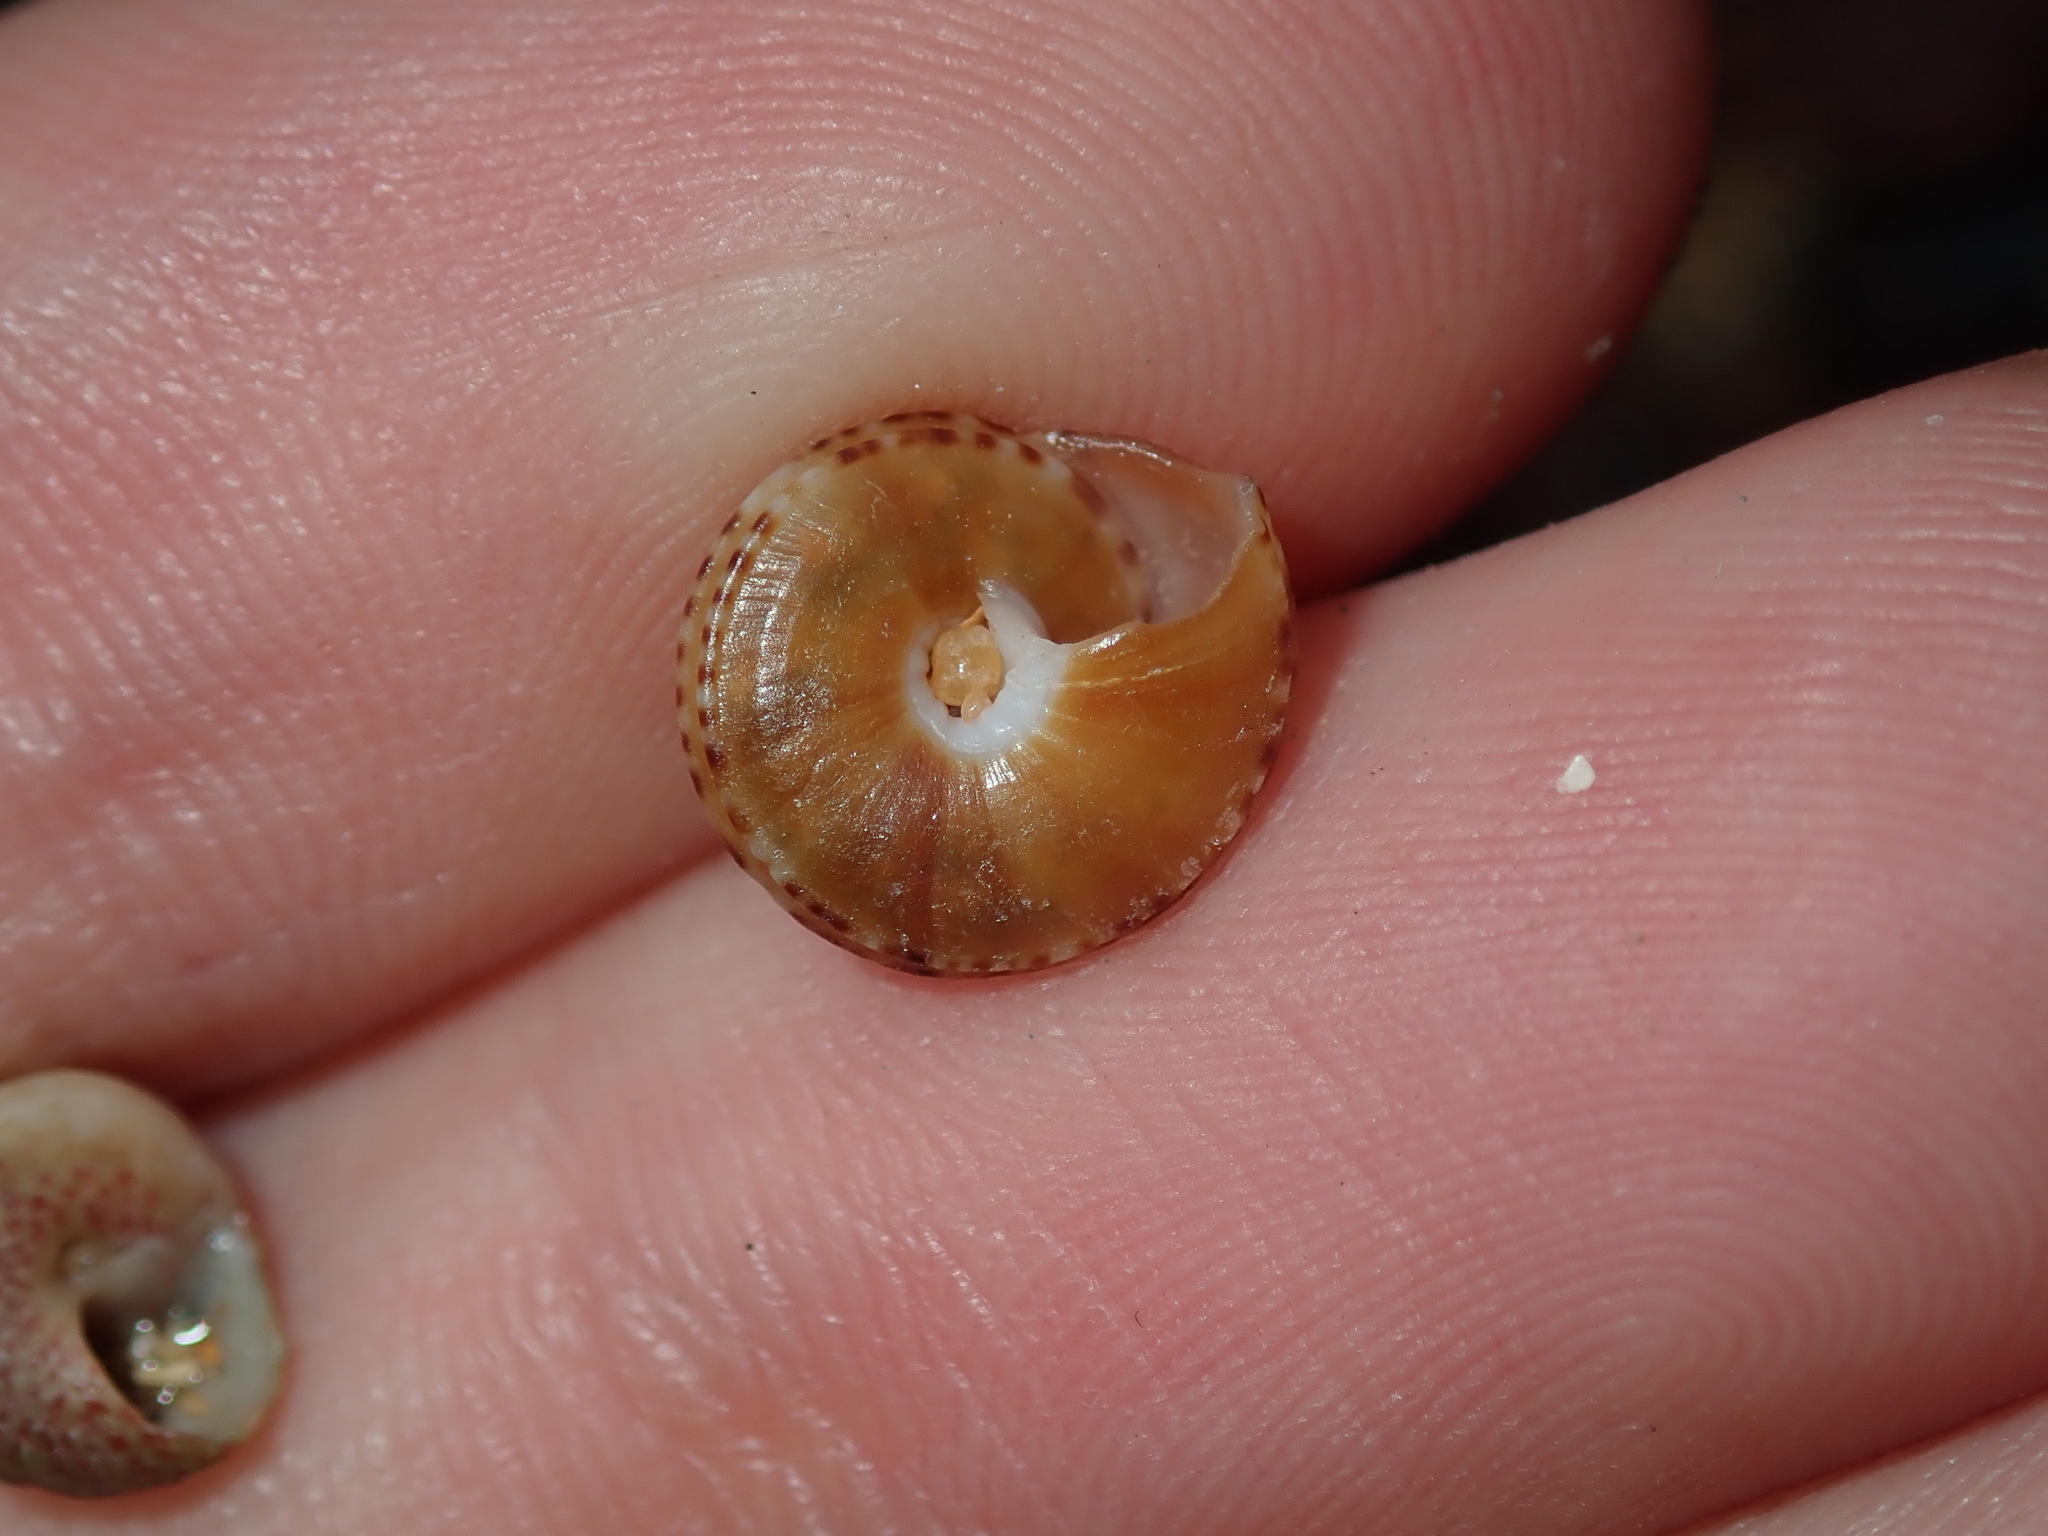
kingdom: Animalia
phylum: Mollusca
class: Gastropoda
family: Architectonicidae
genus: Philippia
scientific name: Philippia lutea
